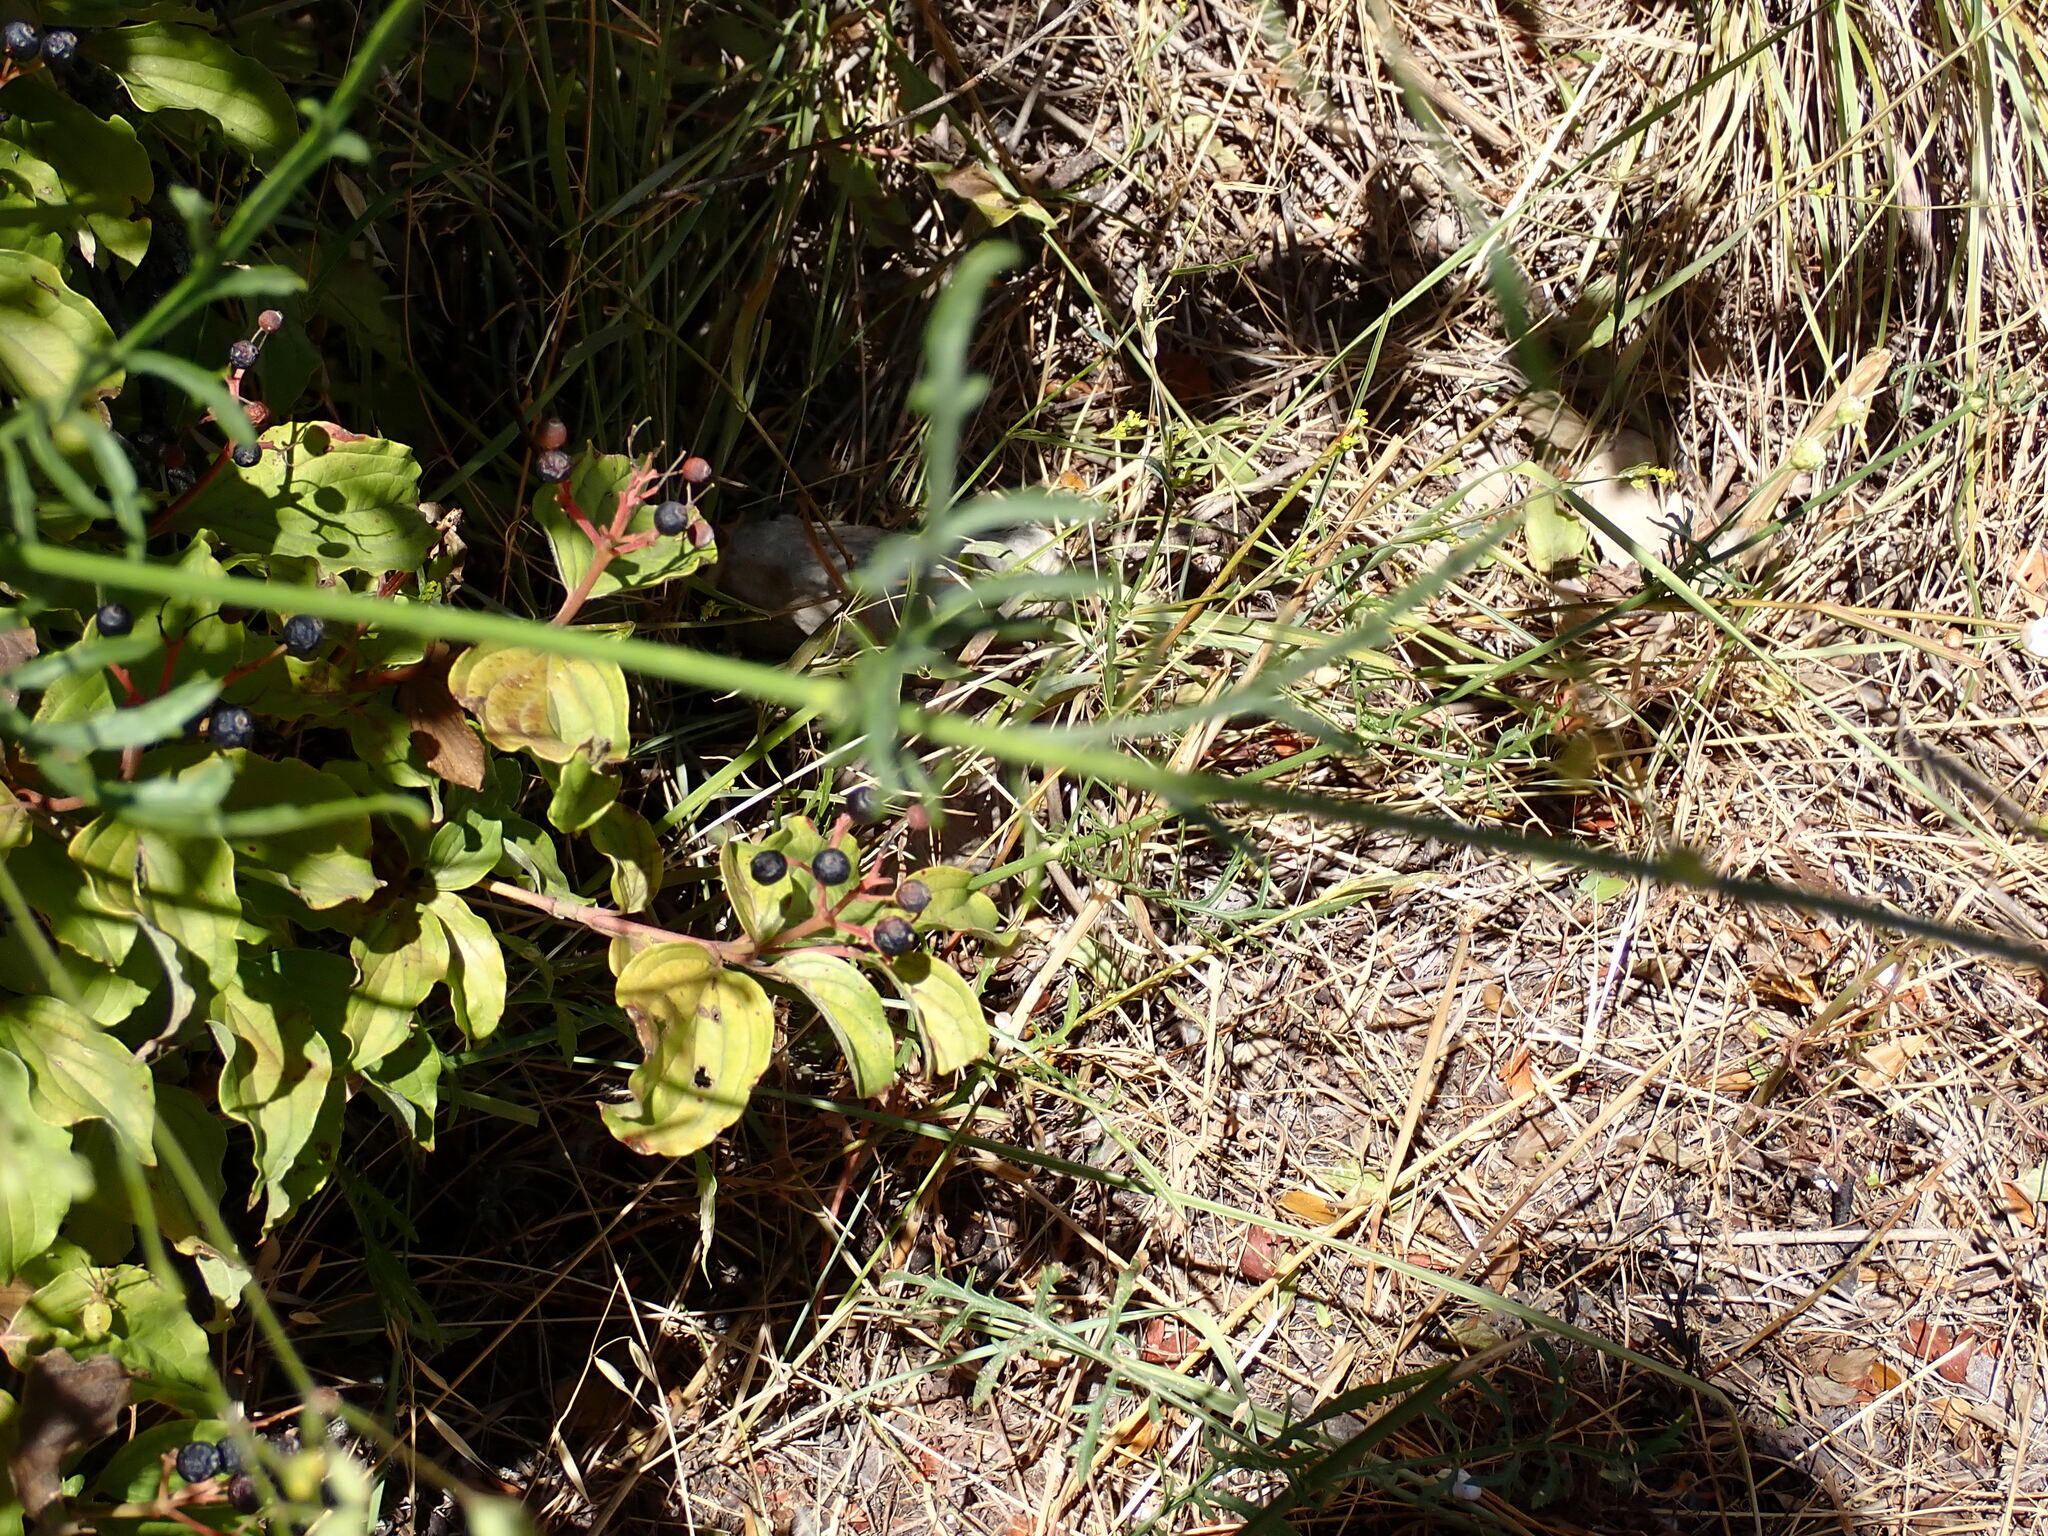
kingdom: Plantae
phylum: Tracheophyta
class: Magnoliopsida
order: Dipsacales
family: Caprifoliaceae
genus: Cephalaria
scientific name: Cephalaria leucantha
